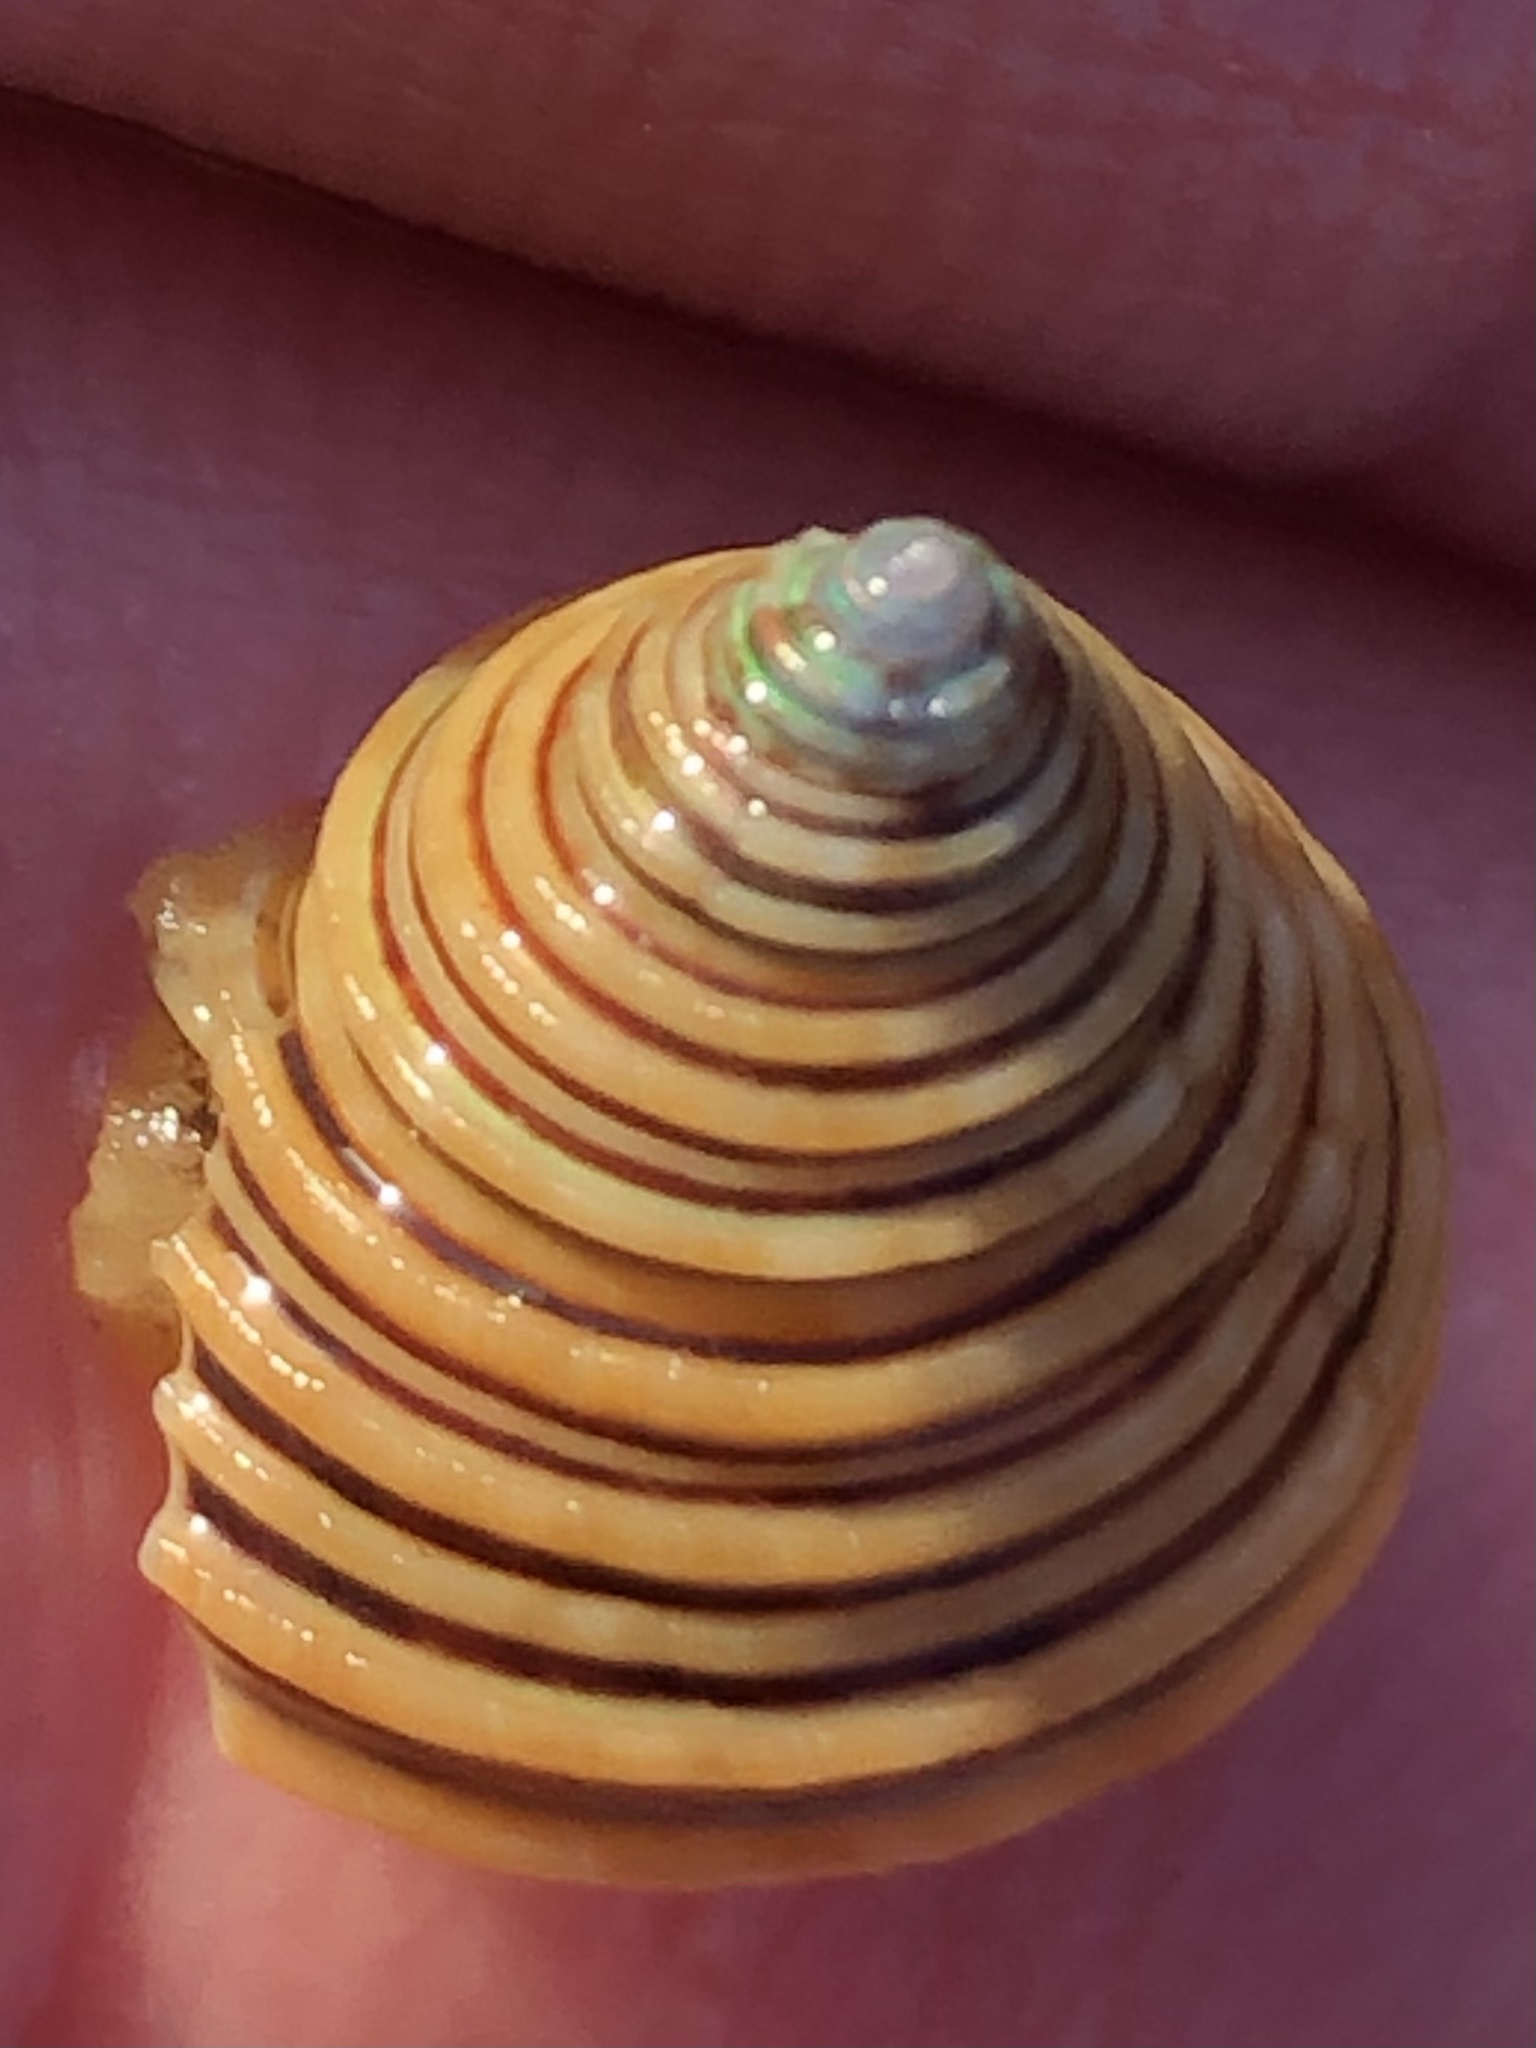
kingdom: Animalia
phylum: Mollusca
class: Gastropoda
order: Trochida
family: Calliostomatidae
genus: Calliostoma
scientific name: Calliostoma canaliculatum
